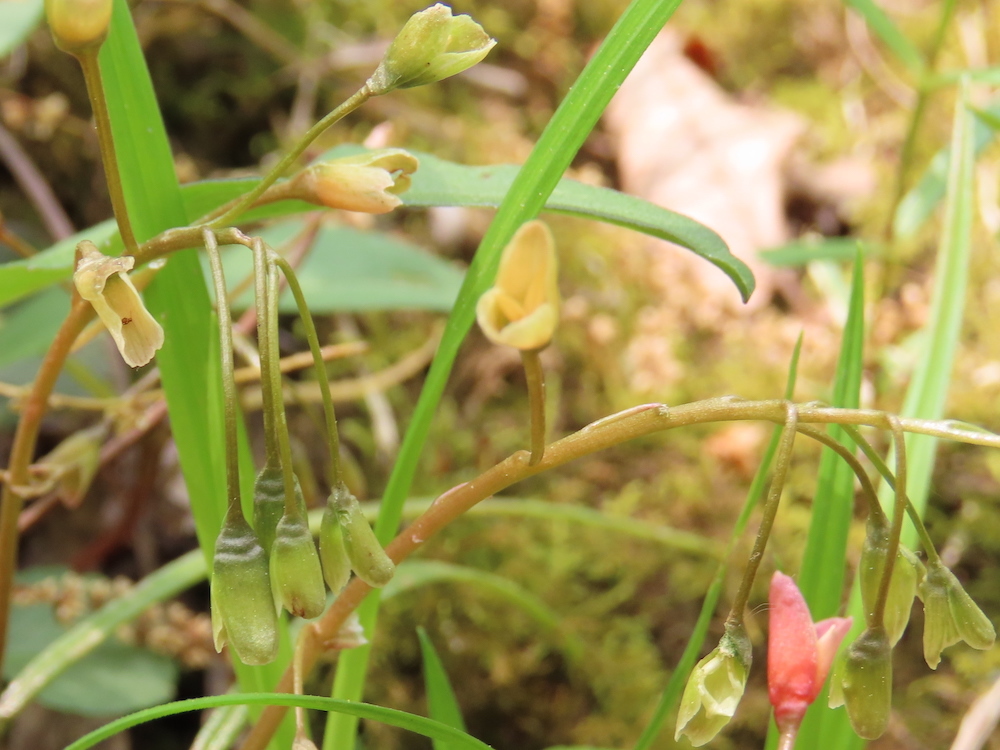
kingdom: Plantae
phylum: Tracheophyta
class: Magnoliopsida
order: Caryophyllales
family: Montiaceae
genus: Claytonia
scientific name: Claytonia virginica
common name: Virginia springbeauty
